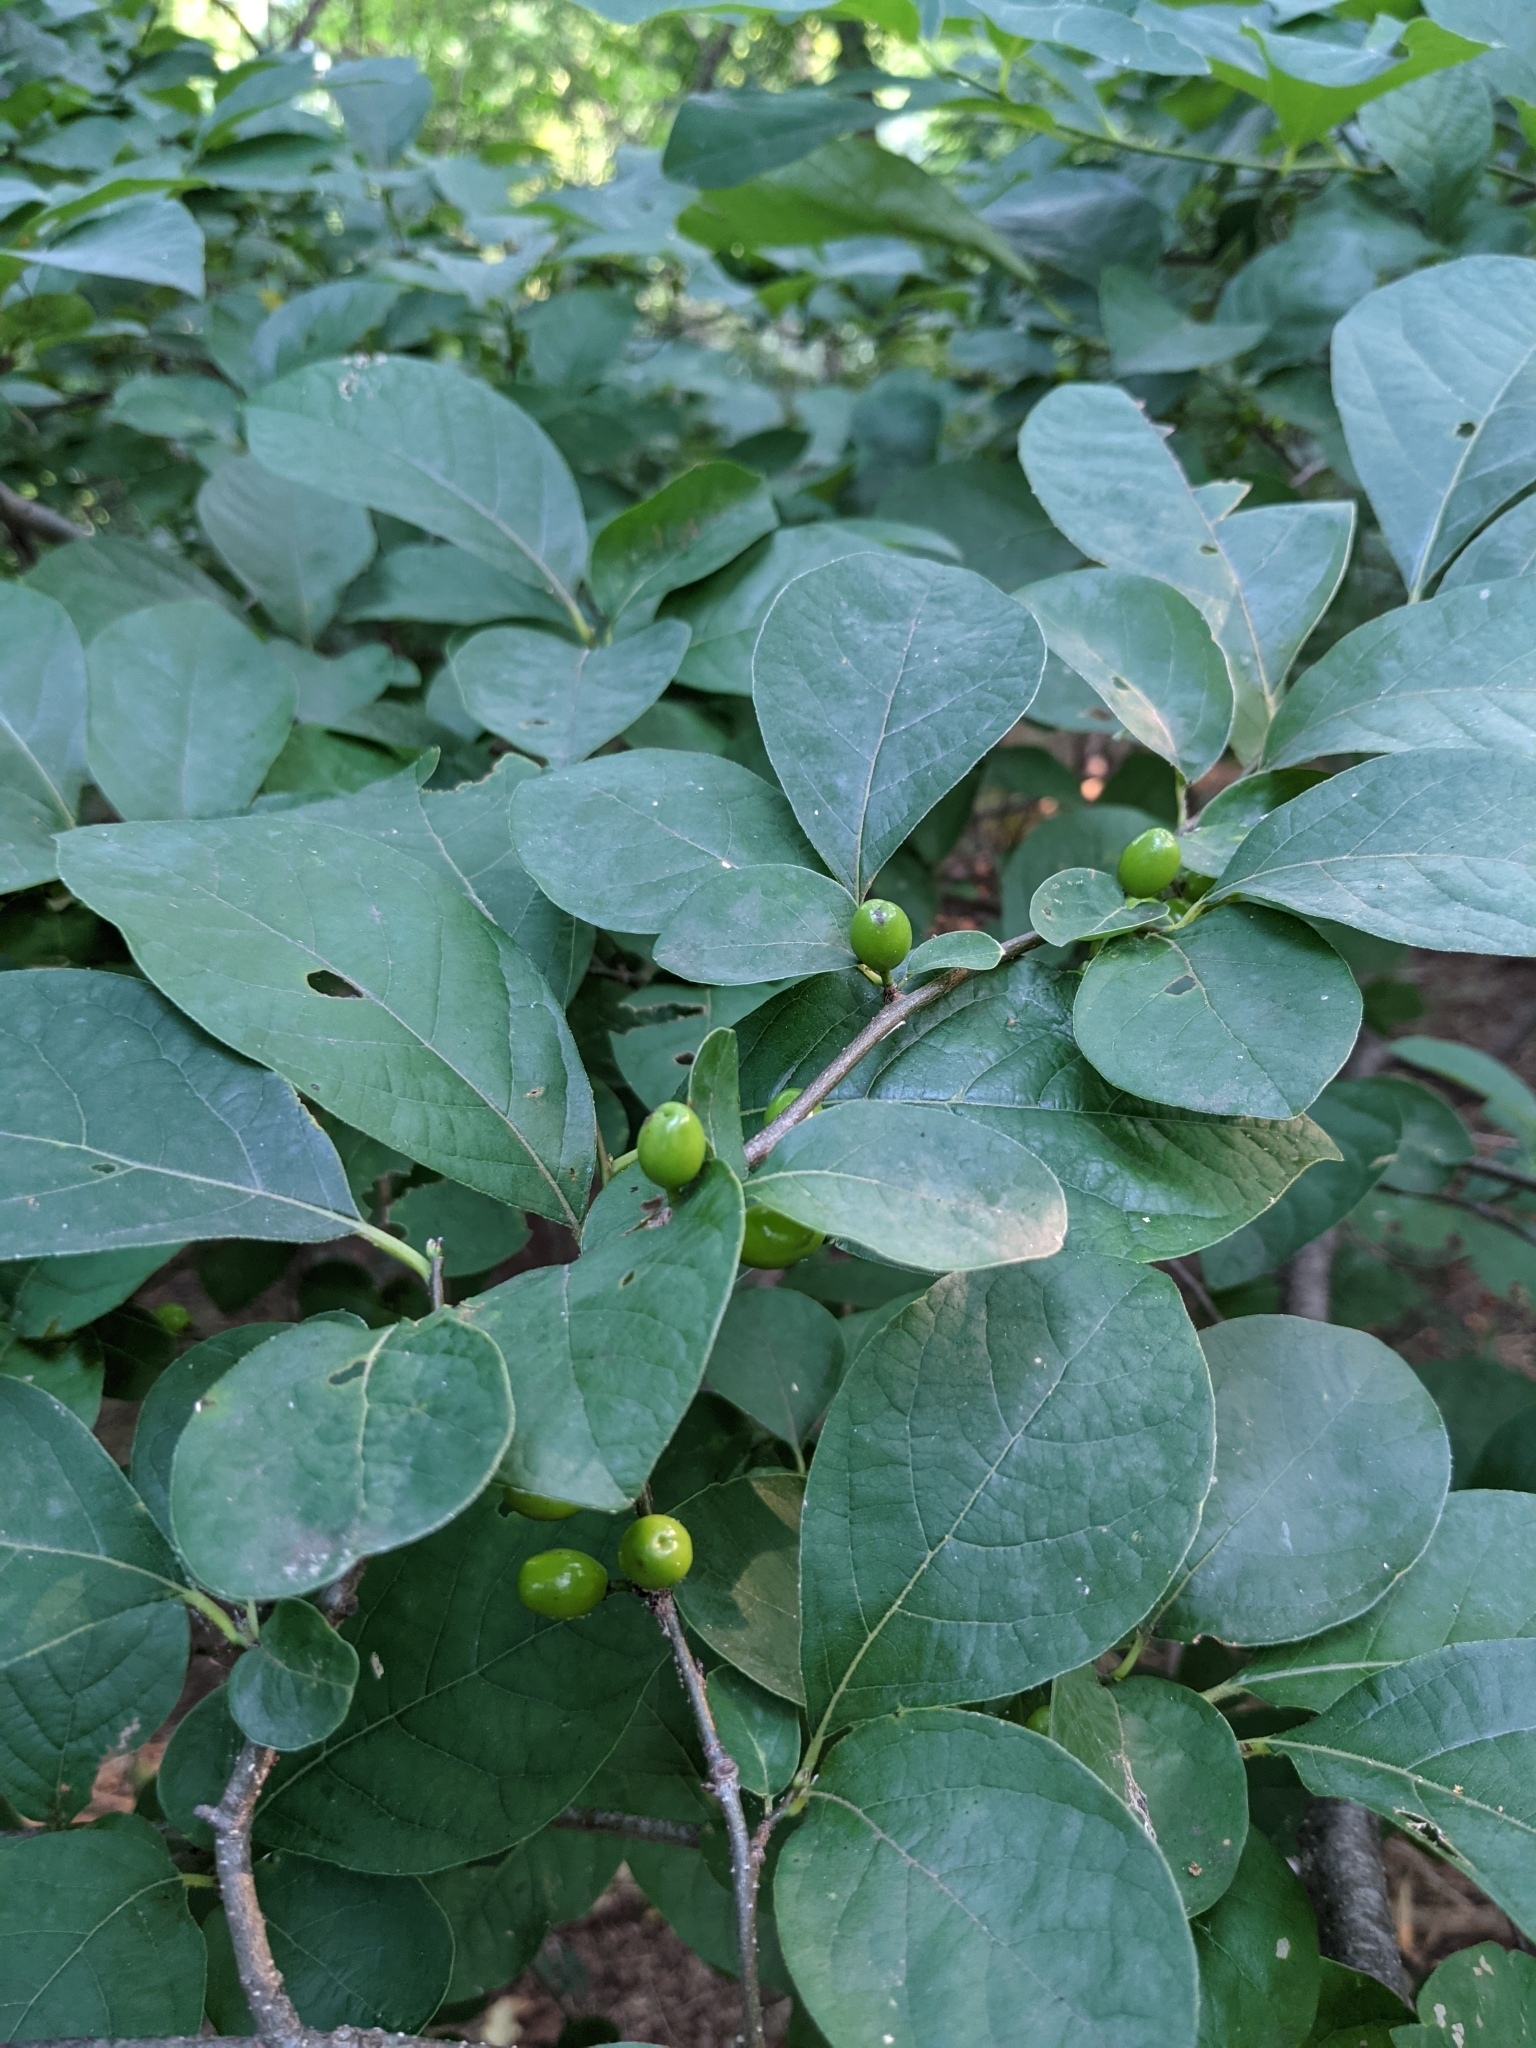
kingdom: Plantae
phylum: Tracheophyta
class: Magnoliopsida
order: Laurales
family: Lauraceae
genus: Lindera
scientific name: Lindera benzoin
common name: Spicebush
